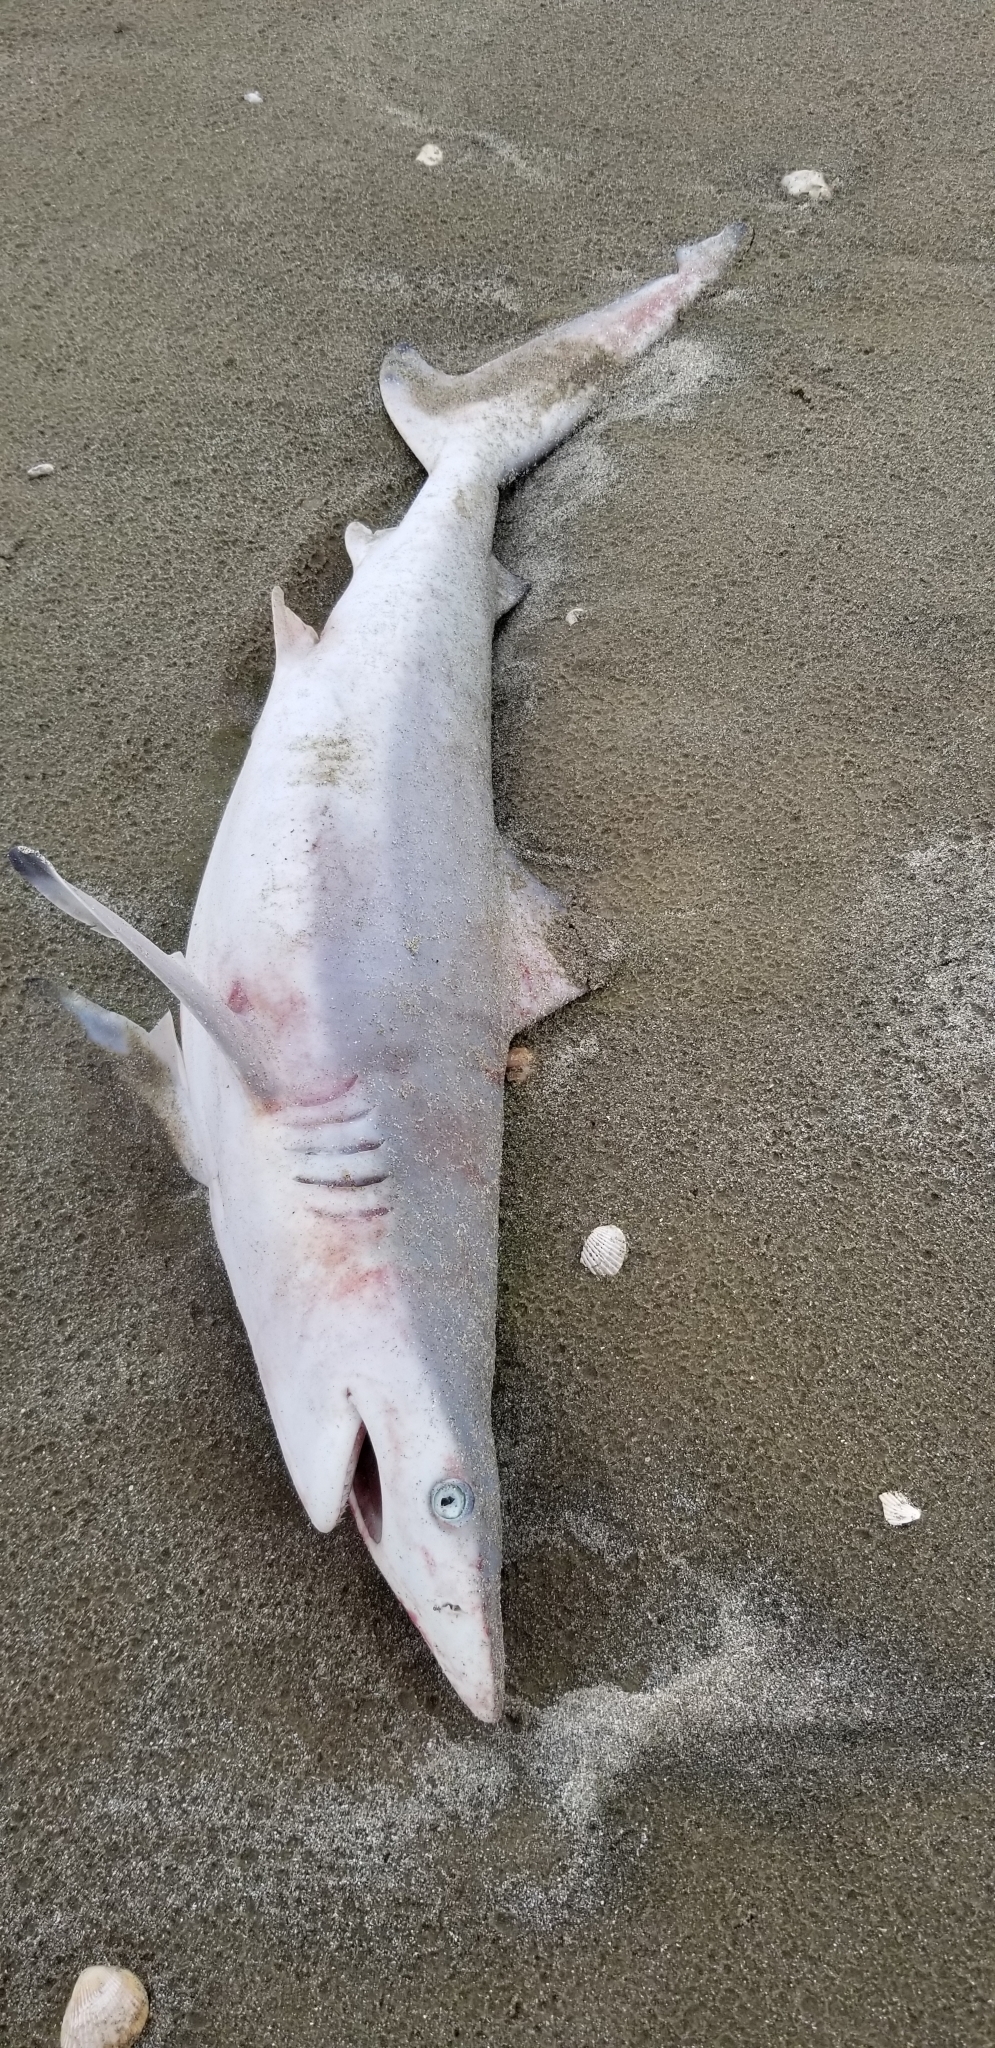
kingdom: Animalia
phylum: Chordata
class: Elasmobranchii
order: Carcharhiniformes
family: Carcharhinidae
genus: Carcharhinus
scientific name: Carcharhinus limbatus
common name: Blacktip shark
